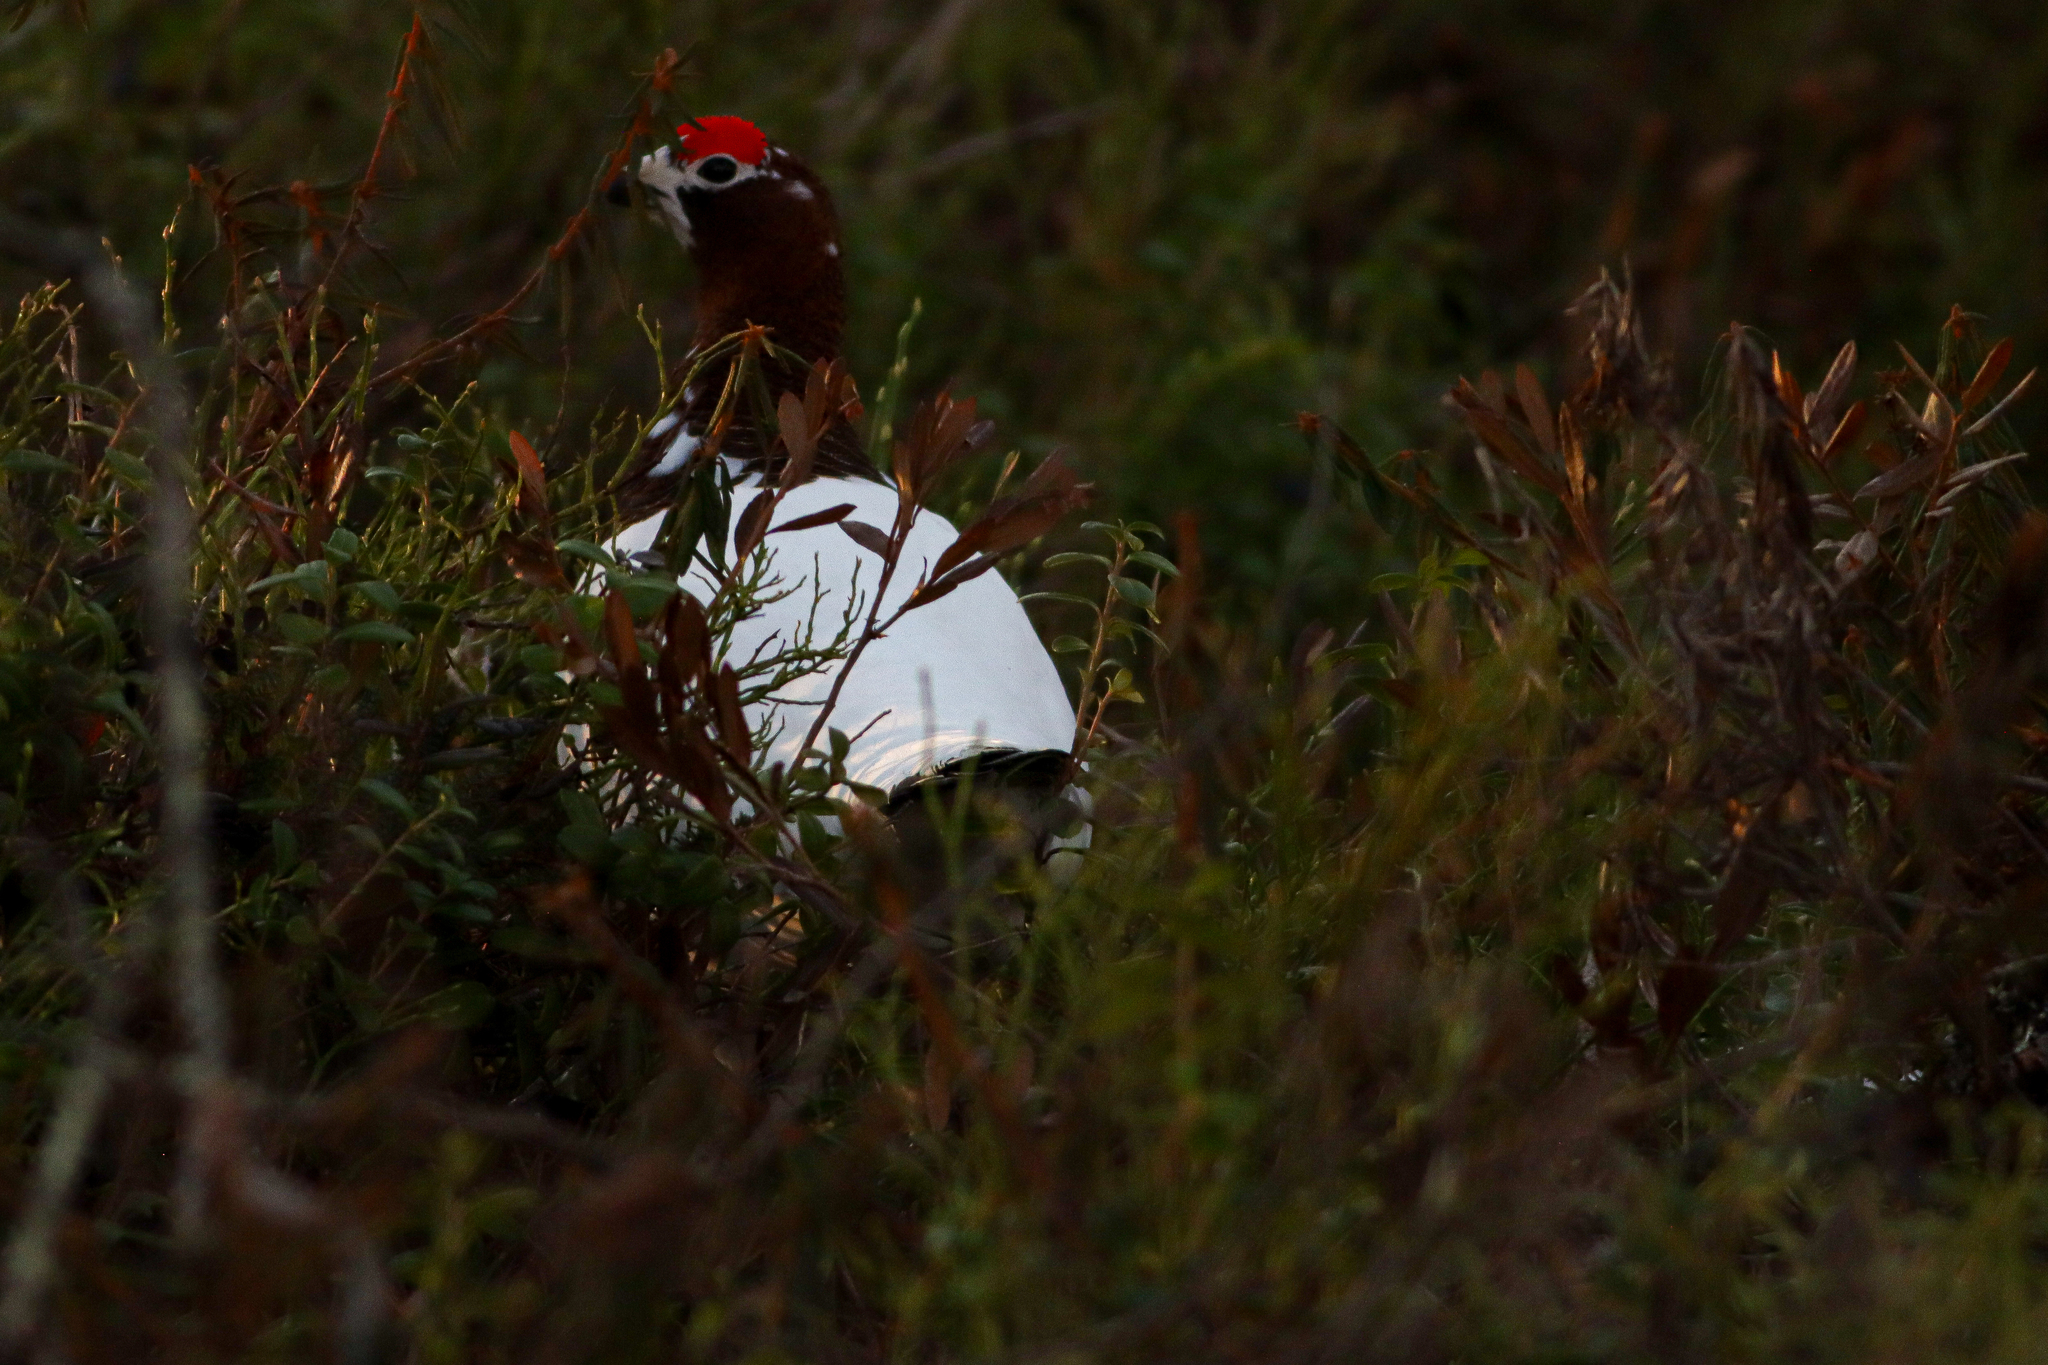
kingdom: Animalia
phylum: Chordata
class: Aves
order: Galliformes
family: Phasianidae
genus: Lagopus
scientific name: Lagopus lagopus
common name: Willow ptarmigan
